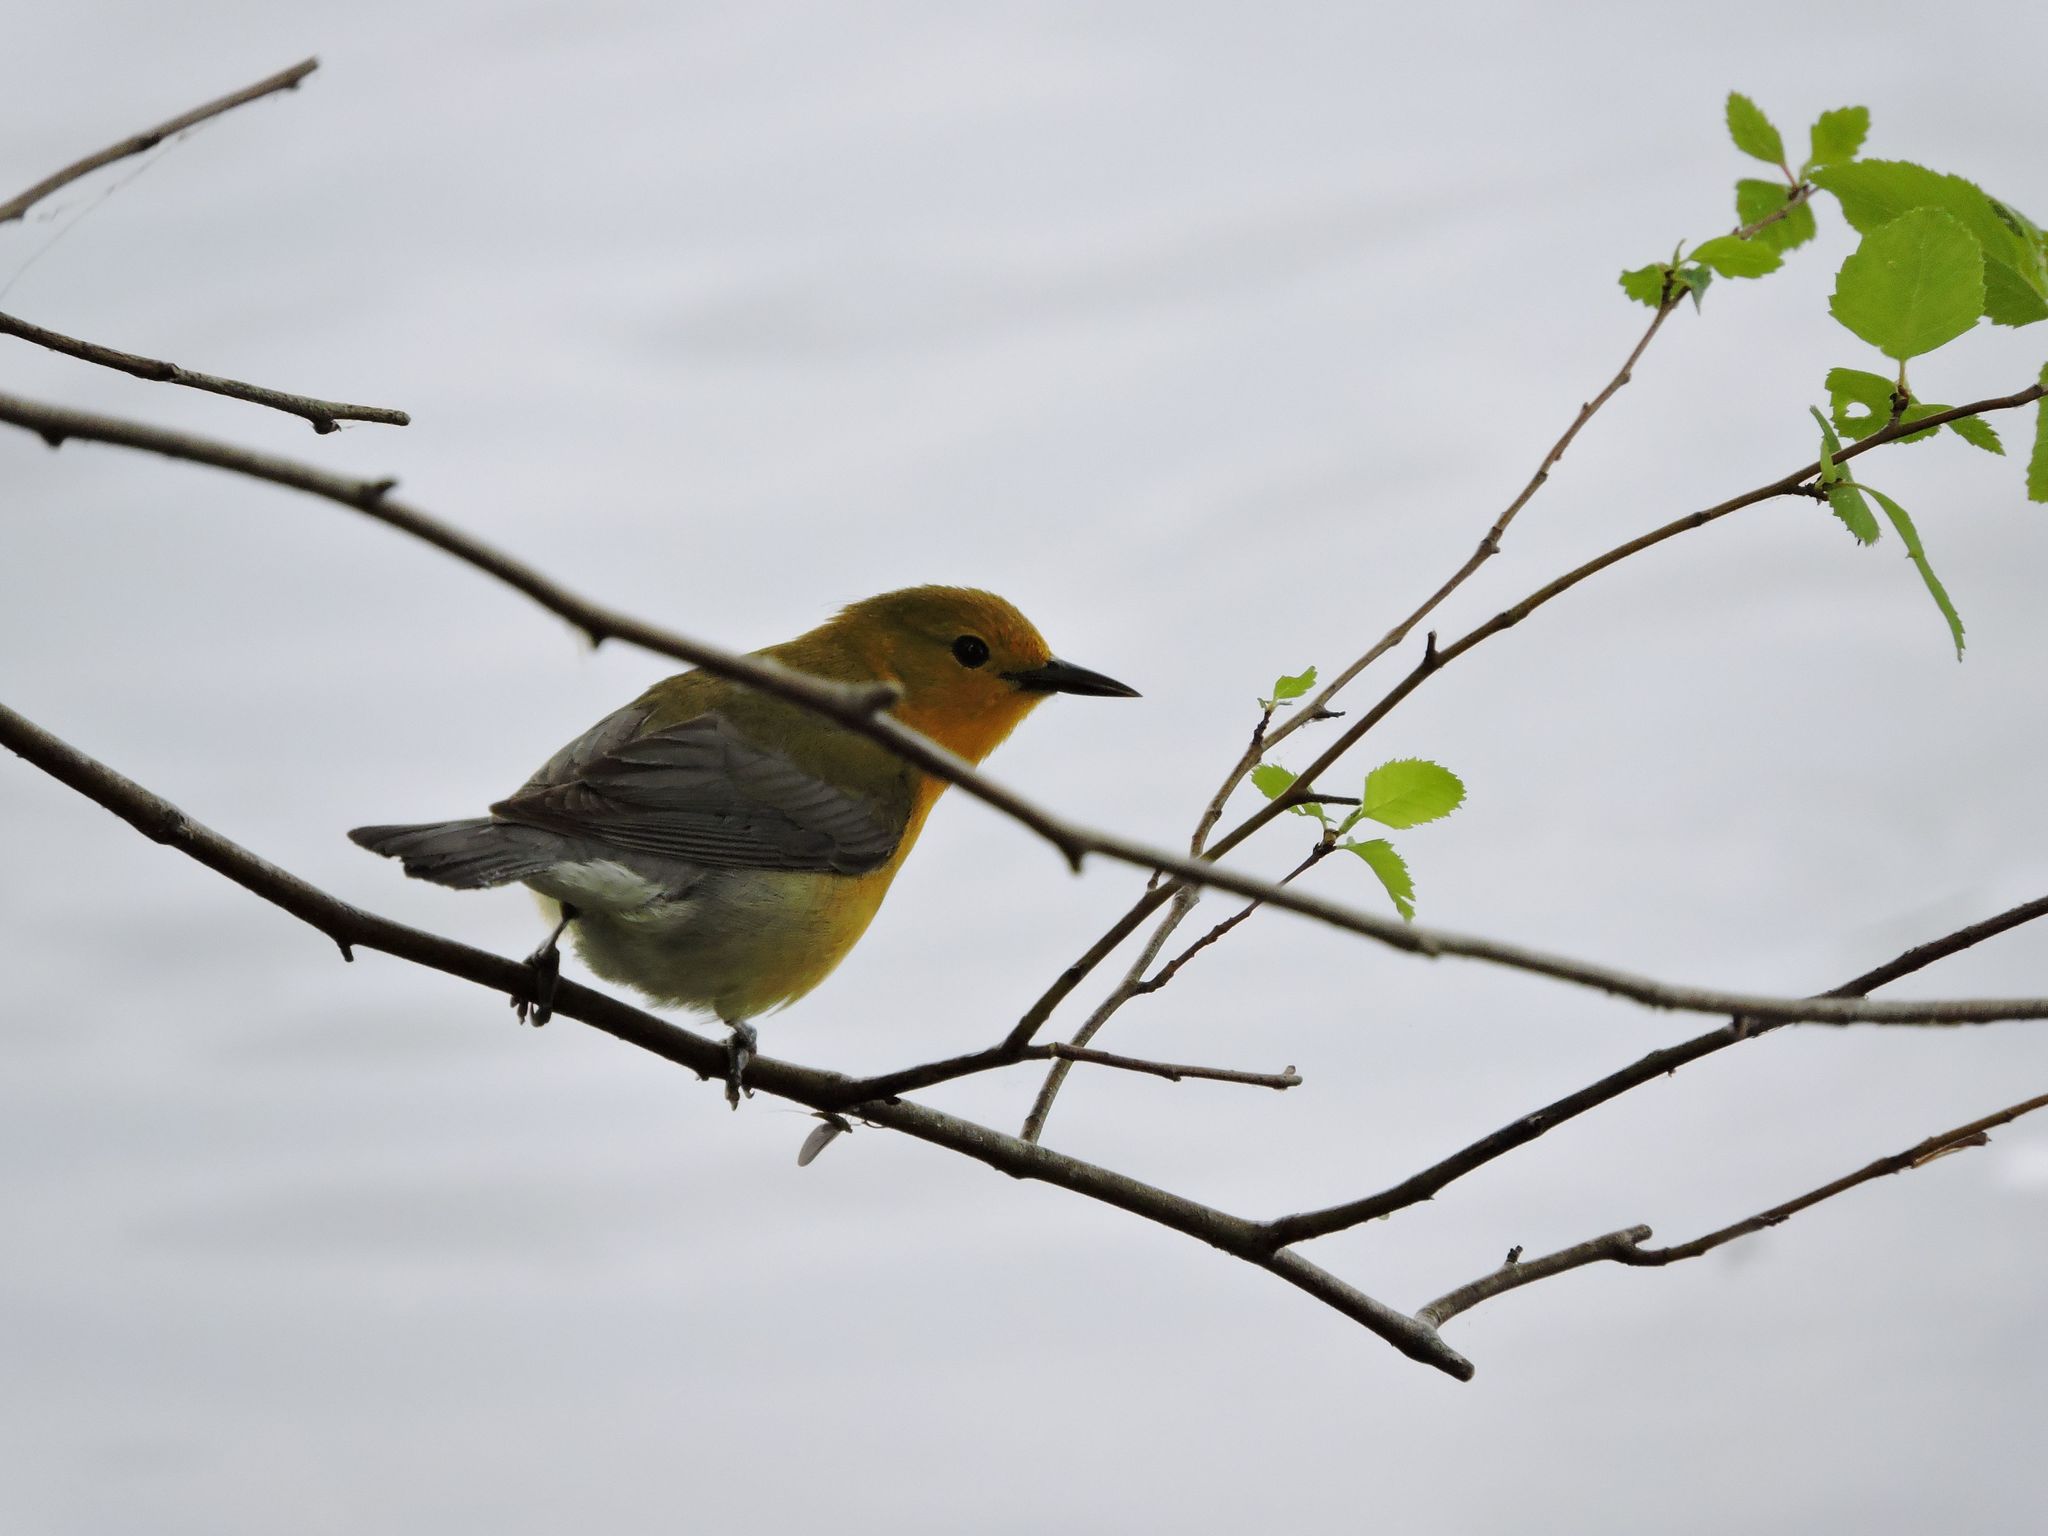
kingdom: Animalia
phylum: Chordata
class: Aves
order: Passeriformes
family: Parulidae
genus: Protonotaria
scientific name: Protonotaria citrea
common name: Prothonotary warbler
